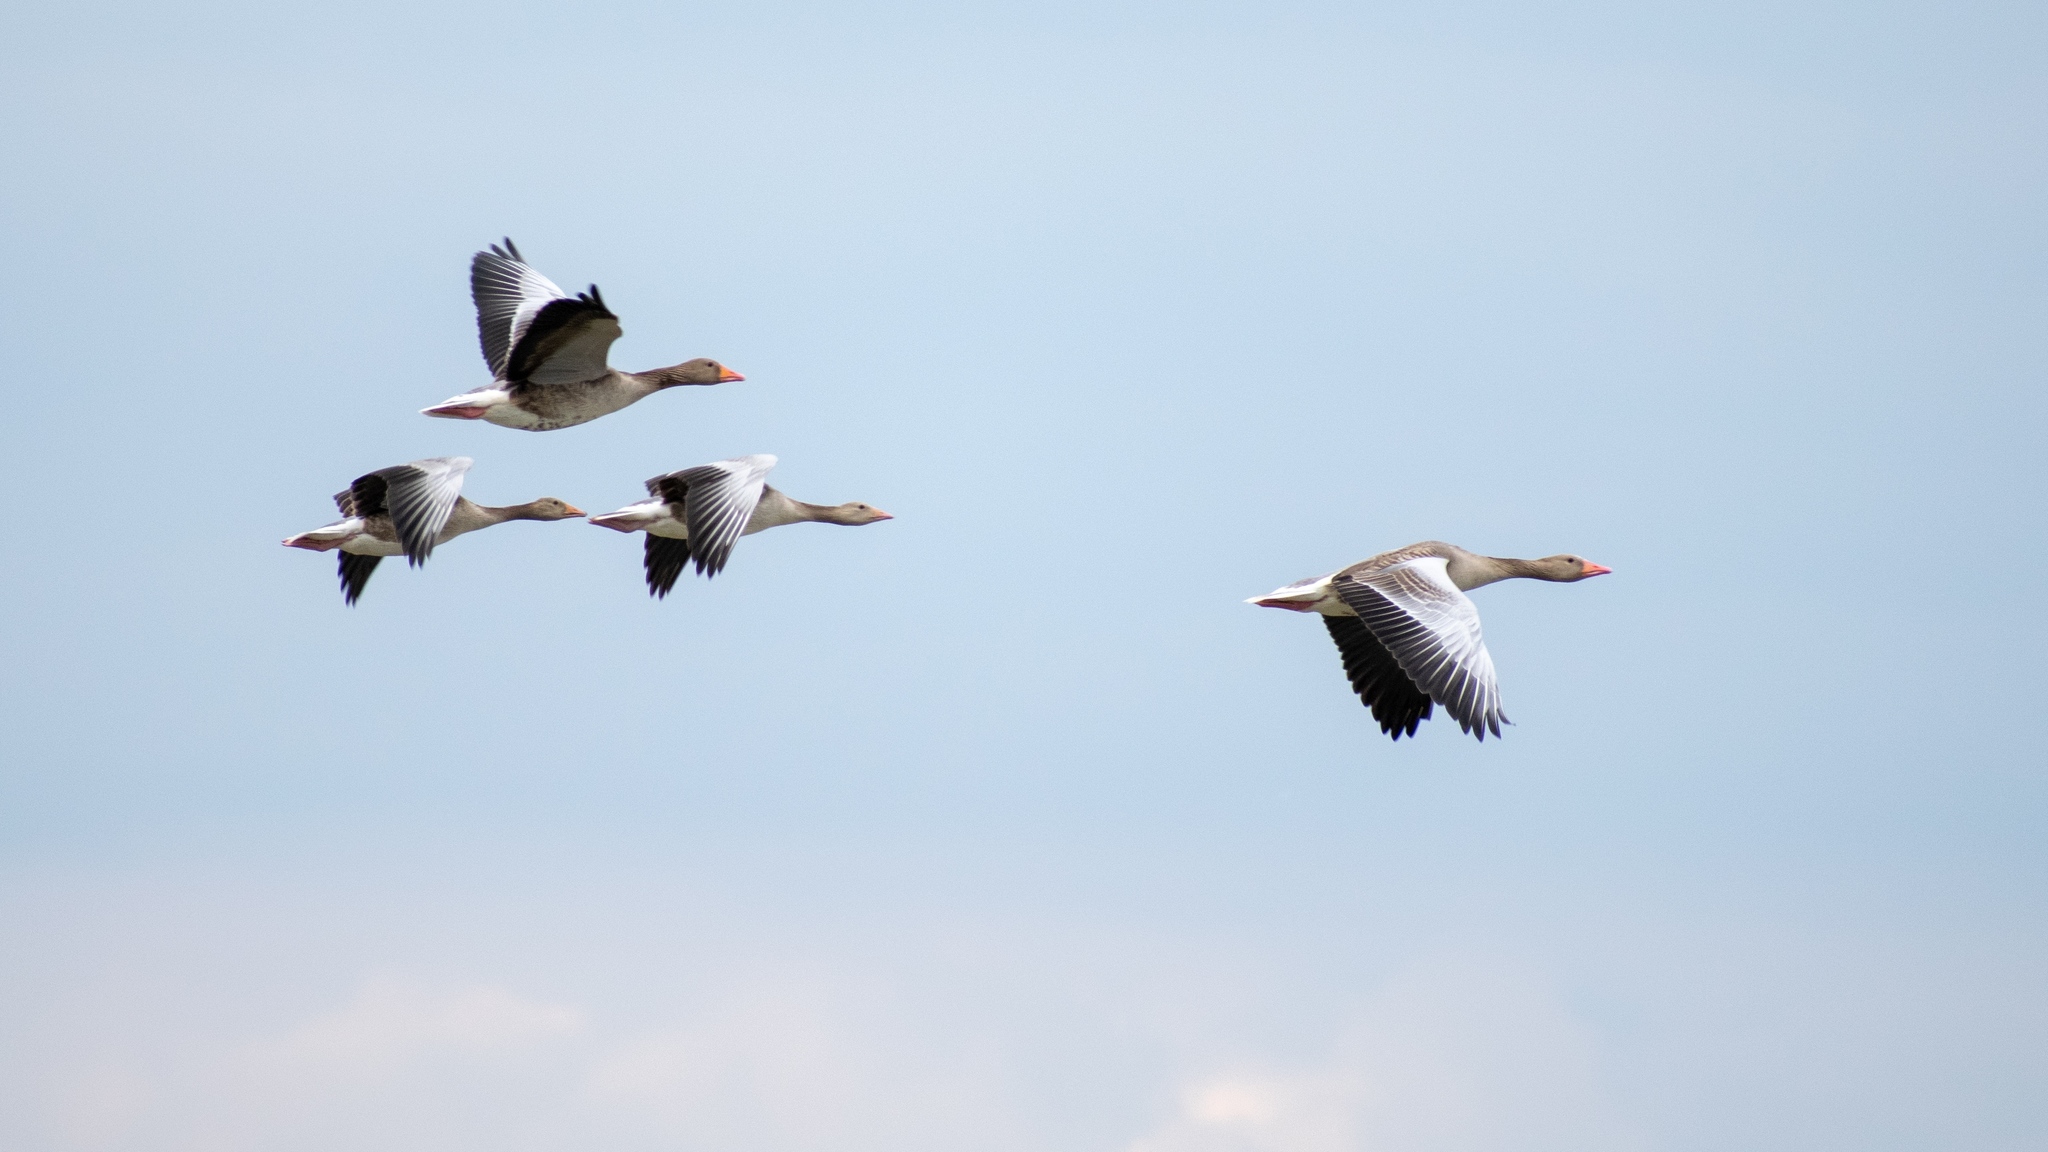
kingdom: Animalia
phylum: Chordata
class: Aves
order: Anseriformes
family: Anatidae
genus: Anser
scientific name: Anser anser
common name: Greylag goose
